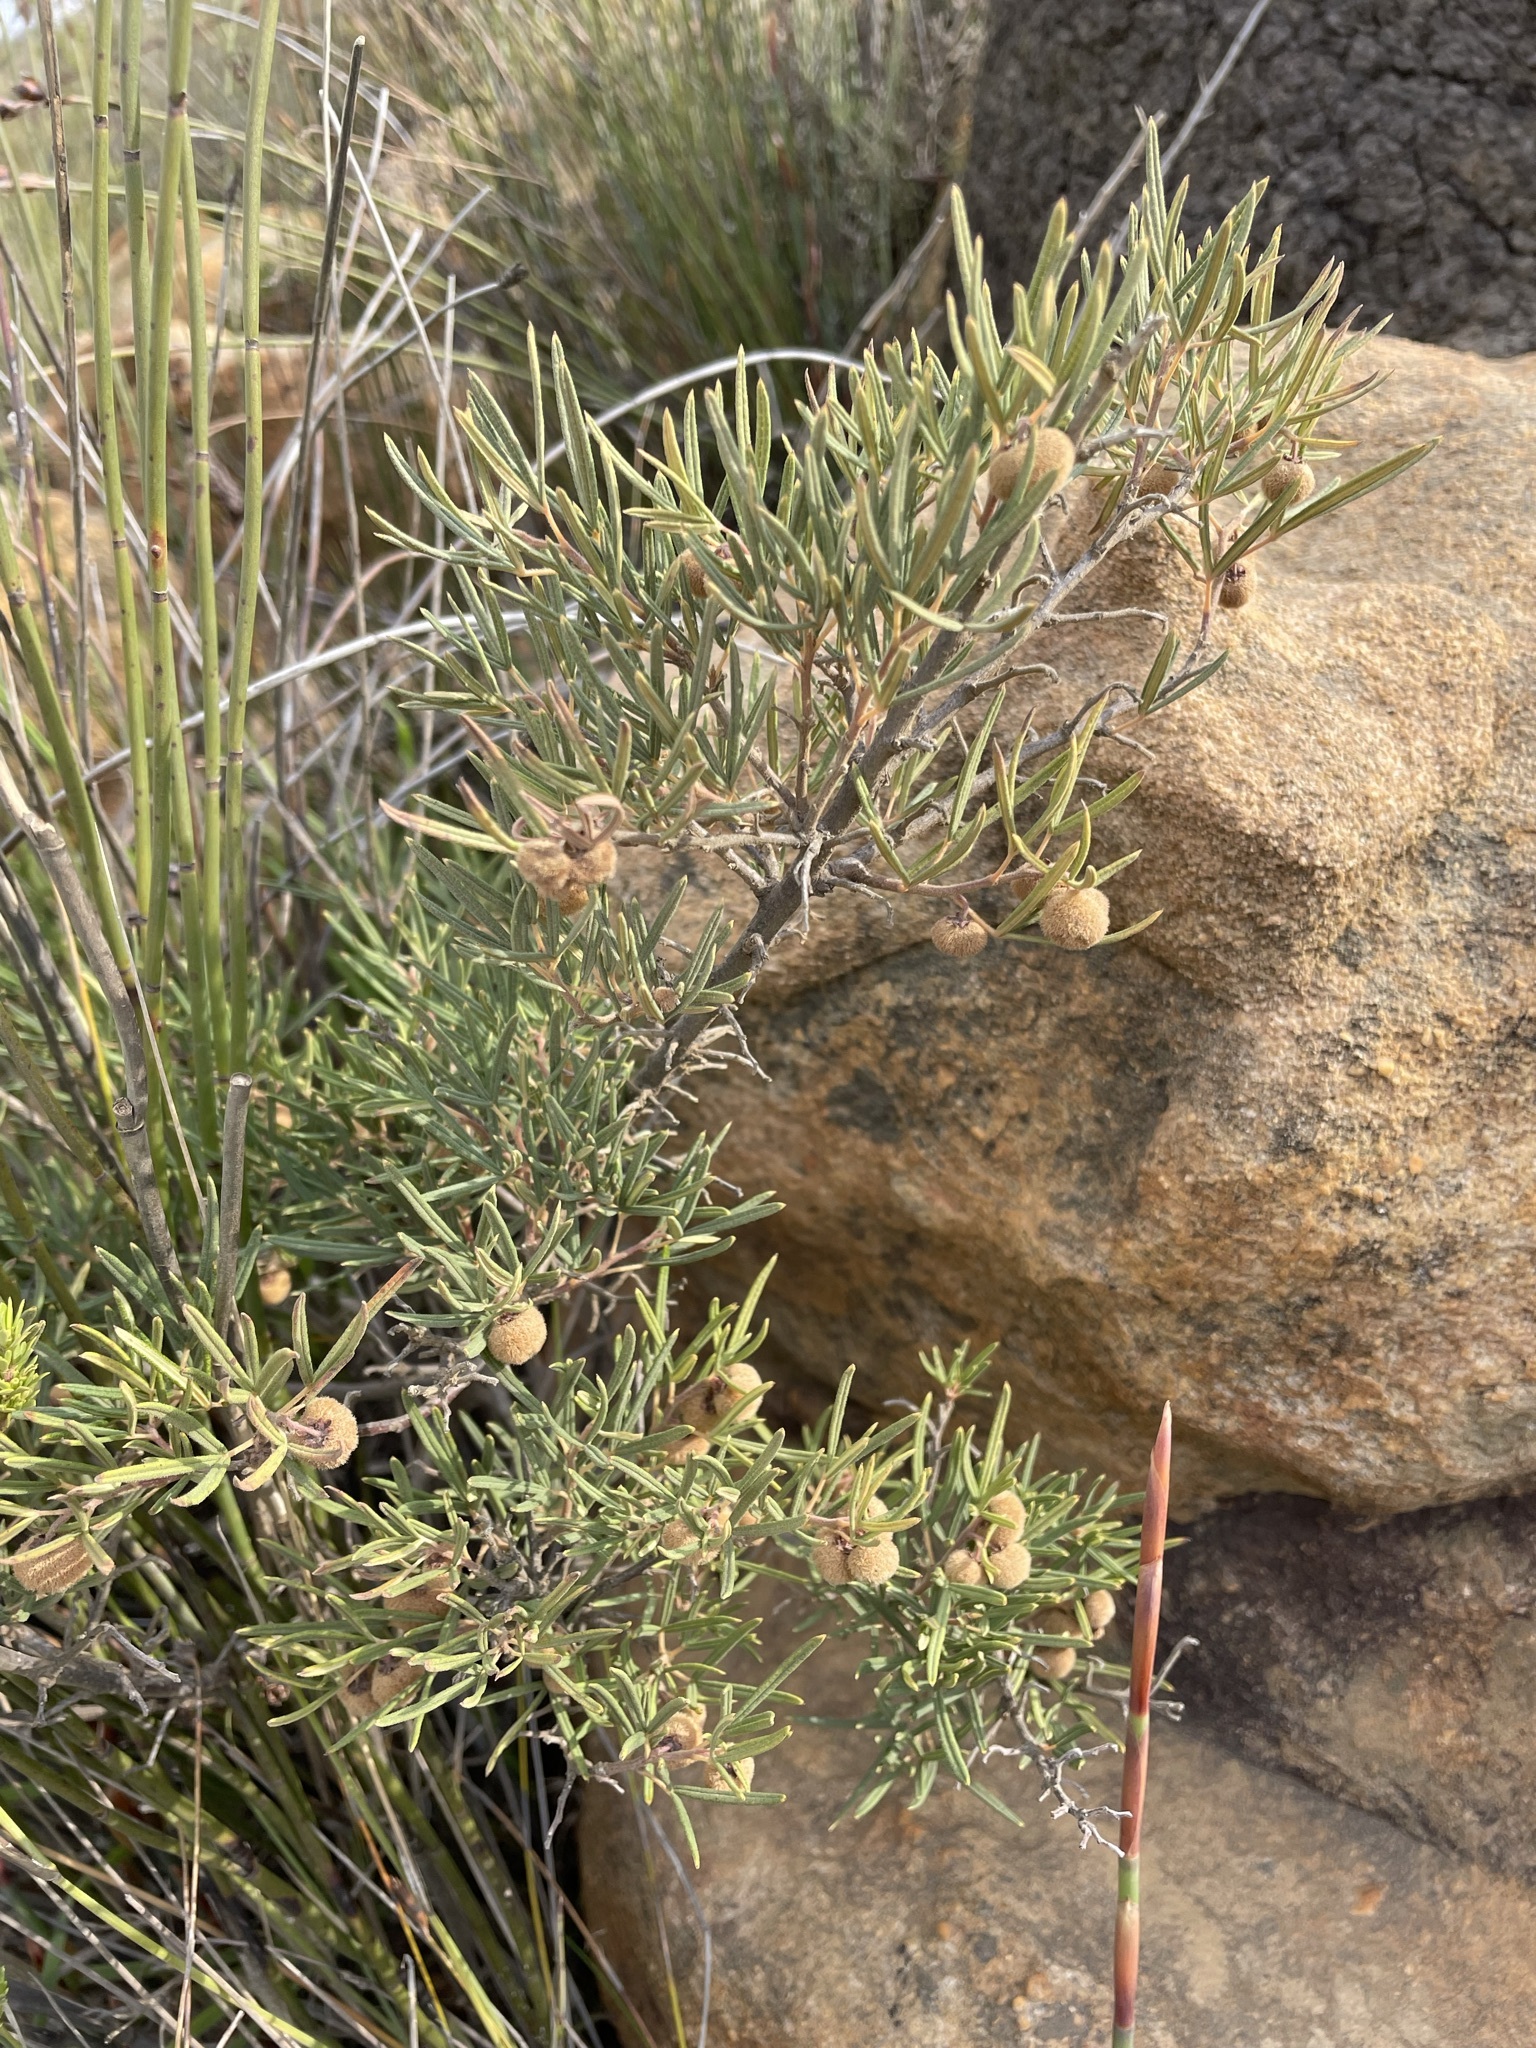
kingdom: Plantae
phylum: Tracheophyta
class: Magnoliopsida
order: Sapindales
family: Anacardiaceae
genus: Searsia
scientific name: Searsia rosmarinifolia
